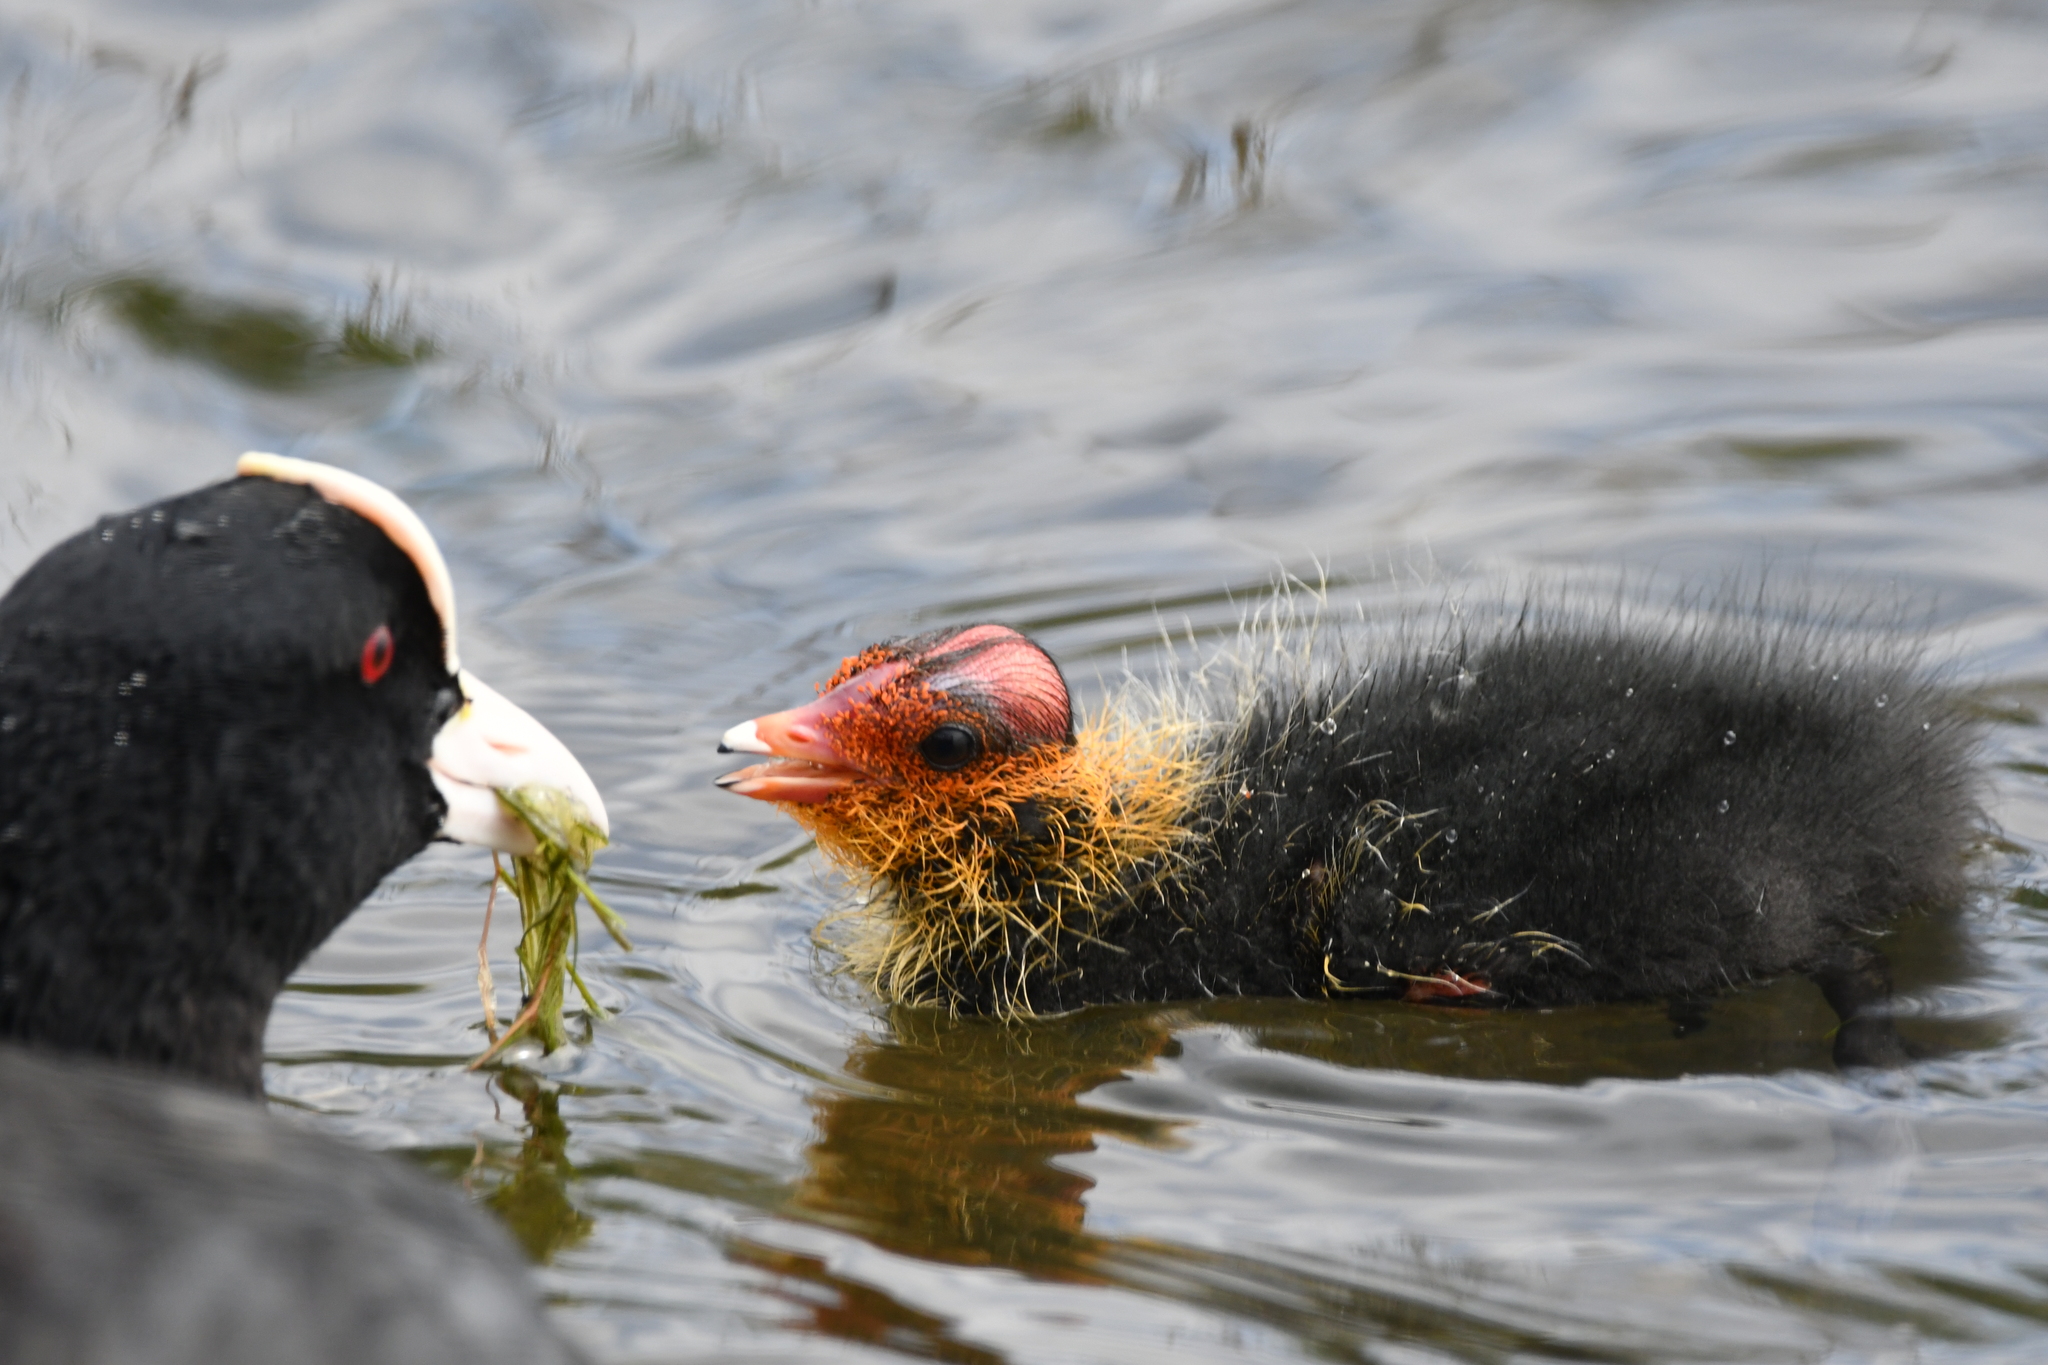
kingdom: Animalia
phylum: Chordata
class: Aves
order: Gruiformes
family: Rallidae
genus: Fulica
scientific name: Fulica atra
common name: Eurasian coot
